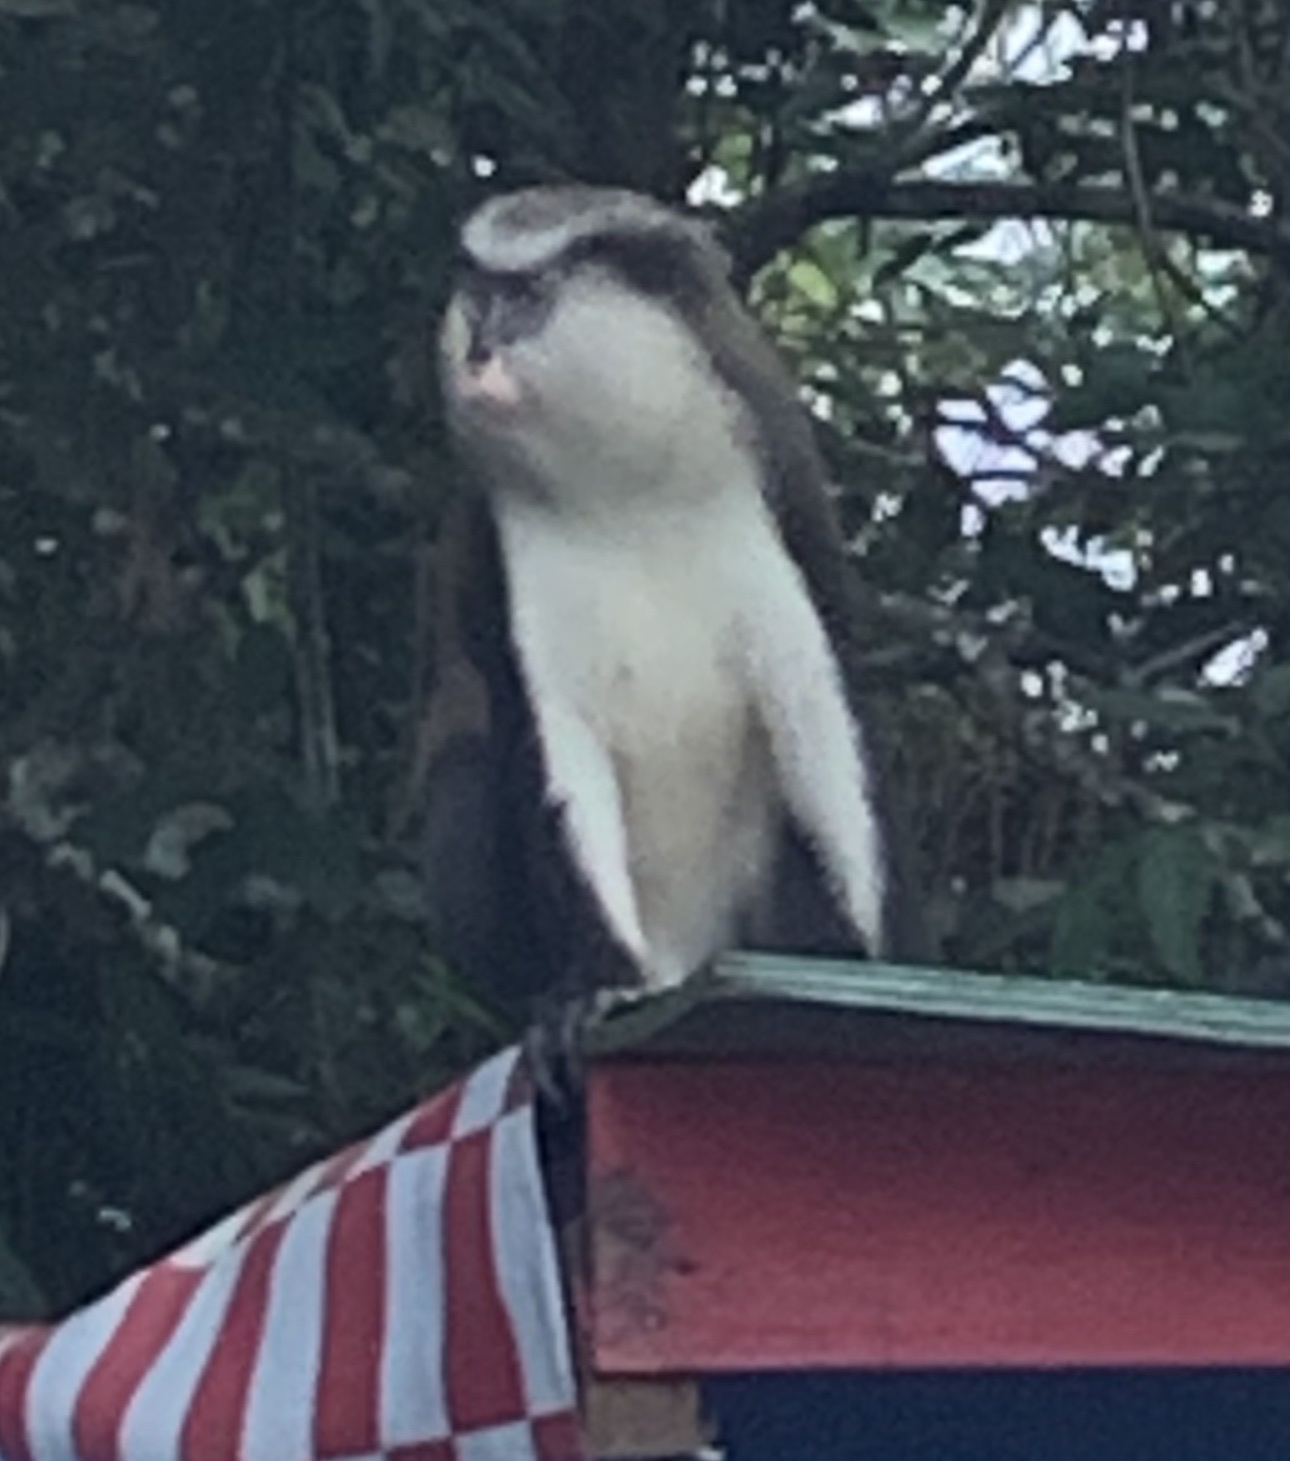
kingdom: Animalia
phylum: Chordata
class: Mammalia
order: Primates
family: Cercopithecidae
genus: Cercopithecus
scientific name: Cercopithecus mona
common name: Mona monkey
